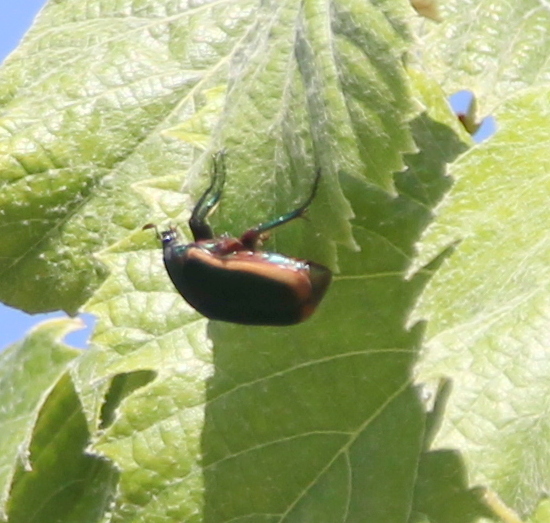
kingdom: Animalia
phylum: Arthropoda
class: Insecta
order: Coleoptera
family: Scarabaeidae
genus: Cotinis
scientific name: Cotinis mutabilis
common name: Figeater beetle
